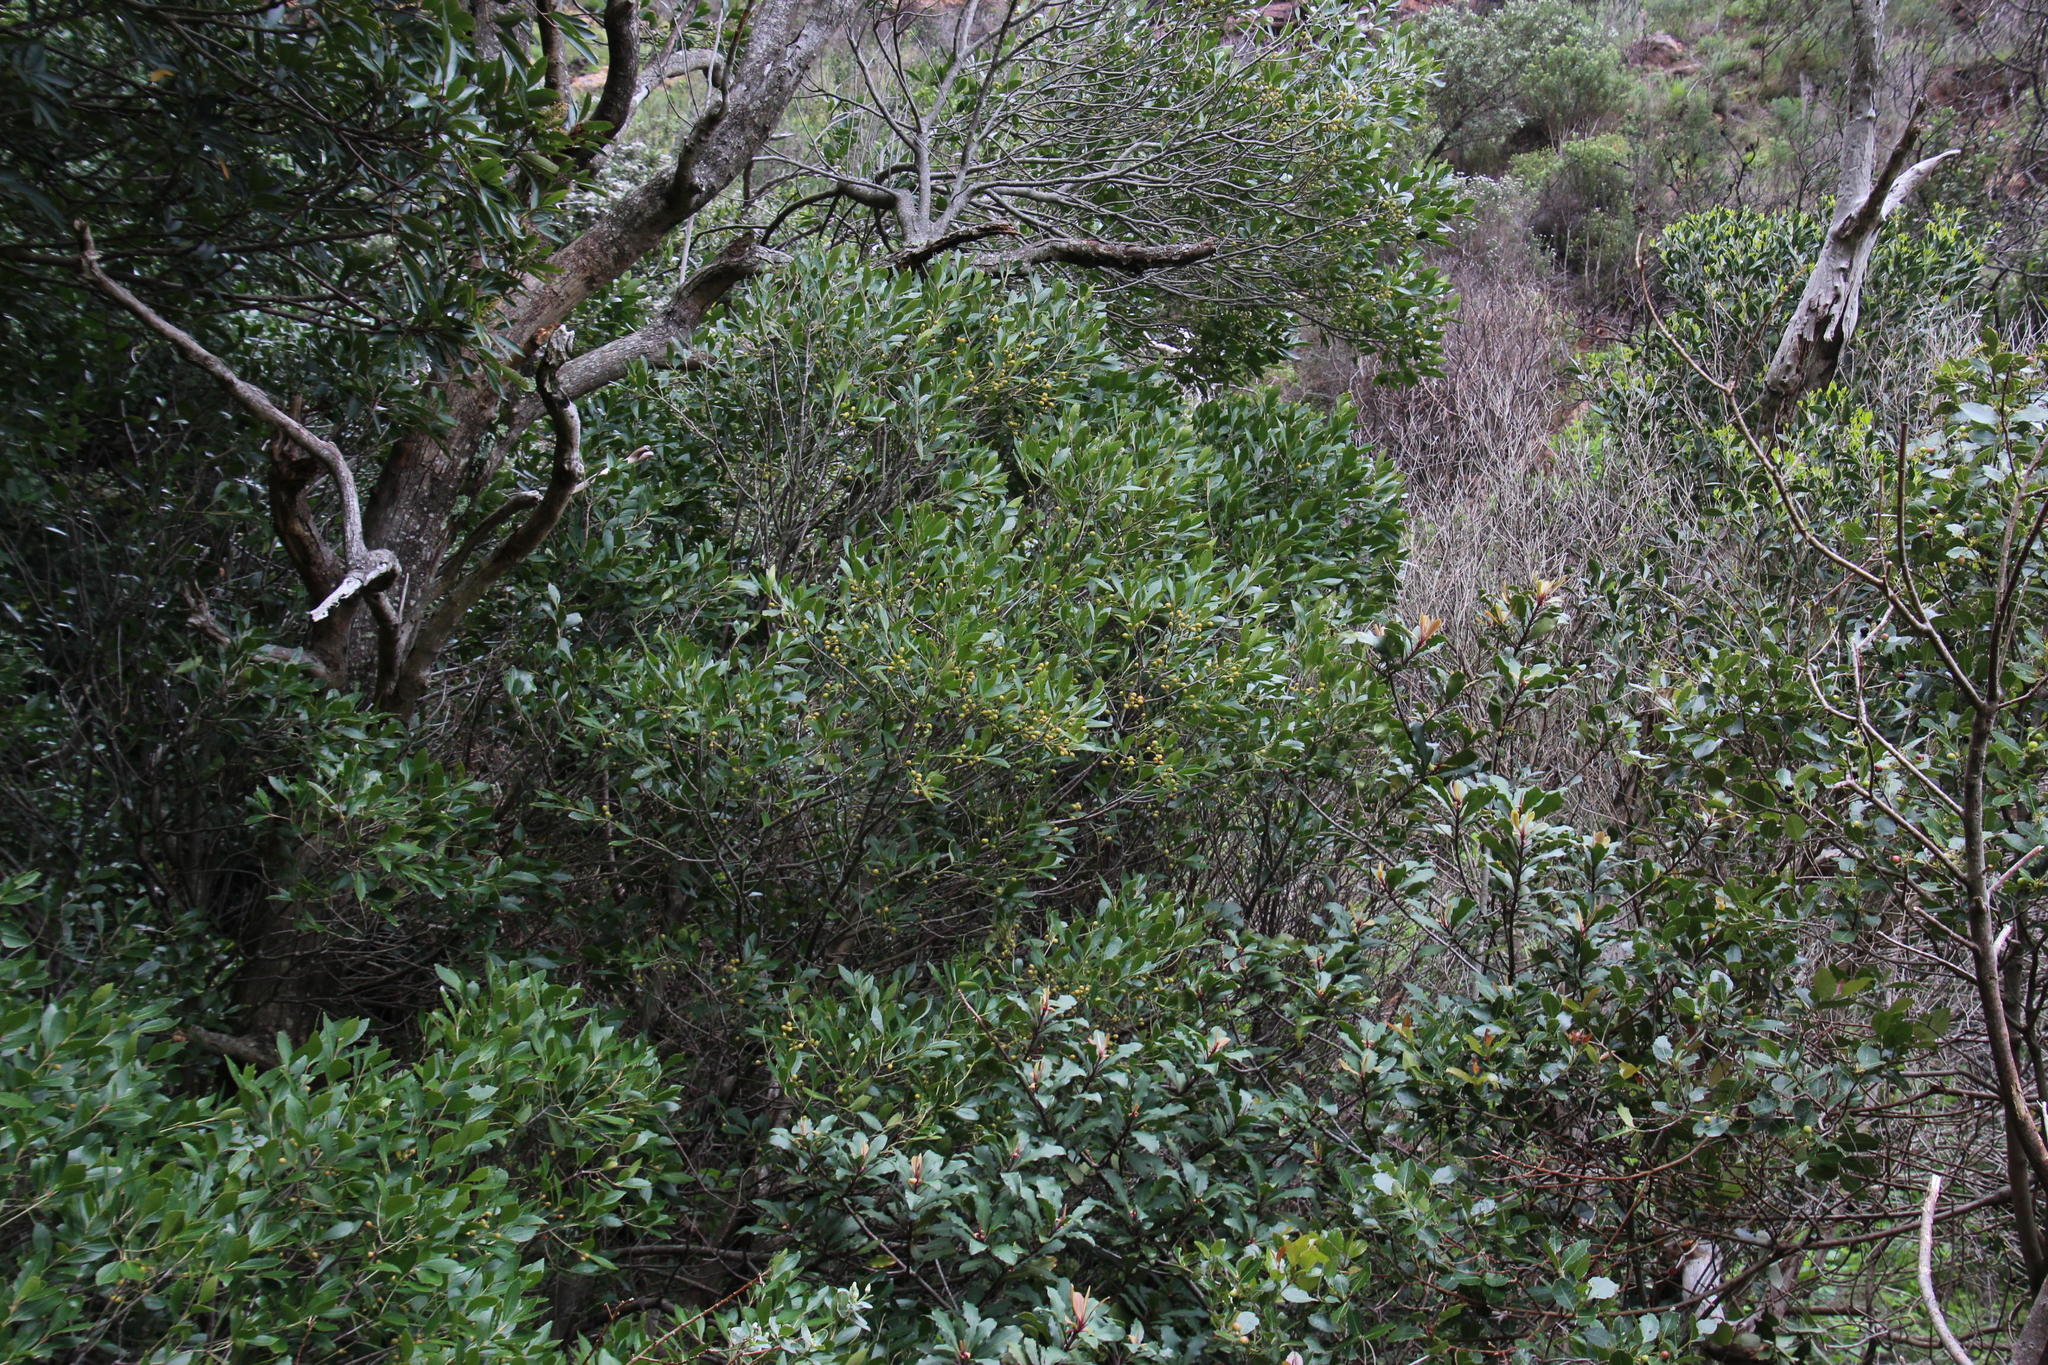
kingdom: Plantae
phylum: Tracheophyta
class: Magnoliopsida
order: Celastrales
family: Celastraceae
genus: Elaeodendron
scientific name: Elaeodendron schinoides
